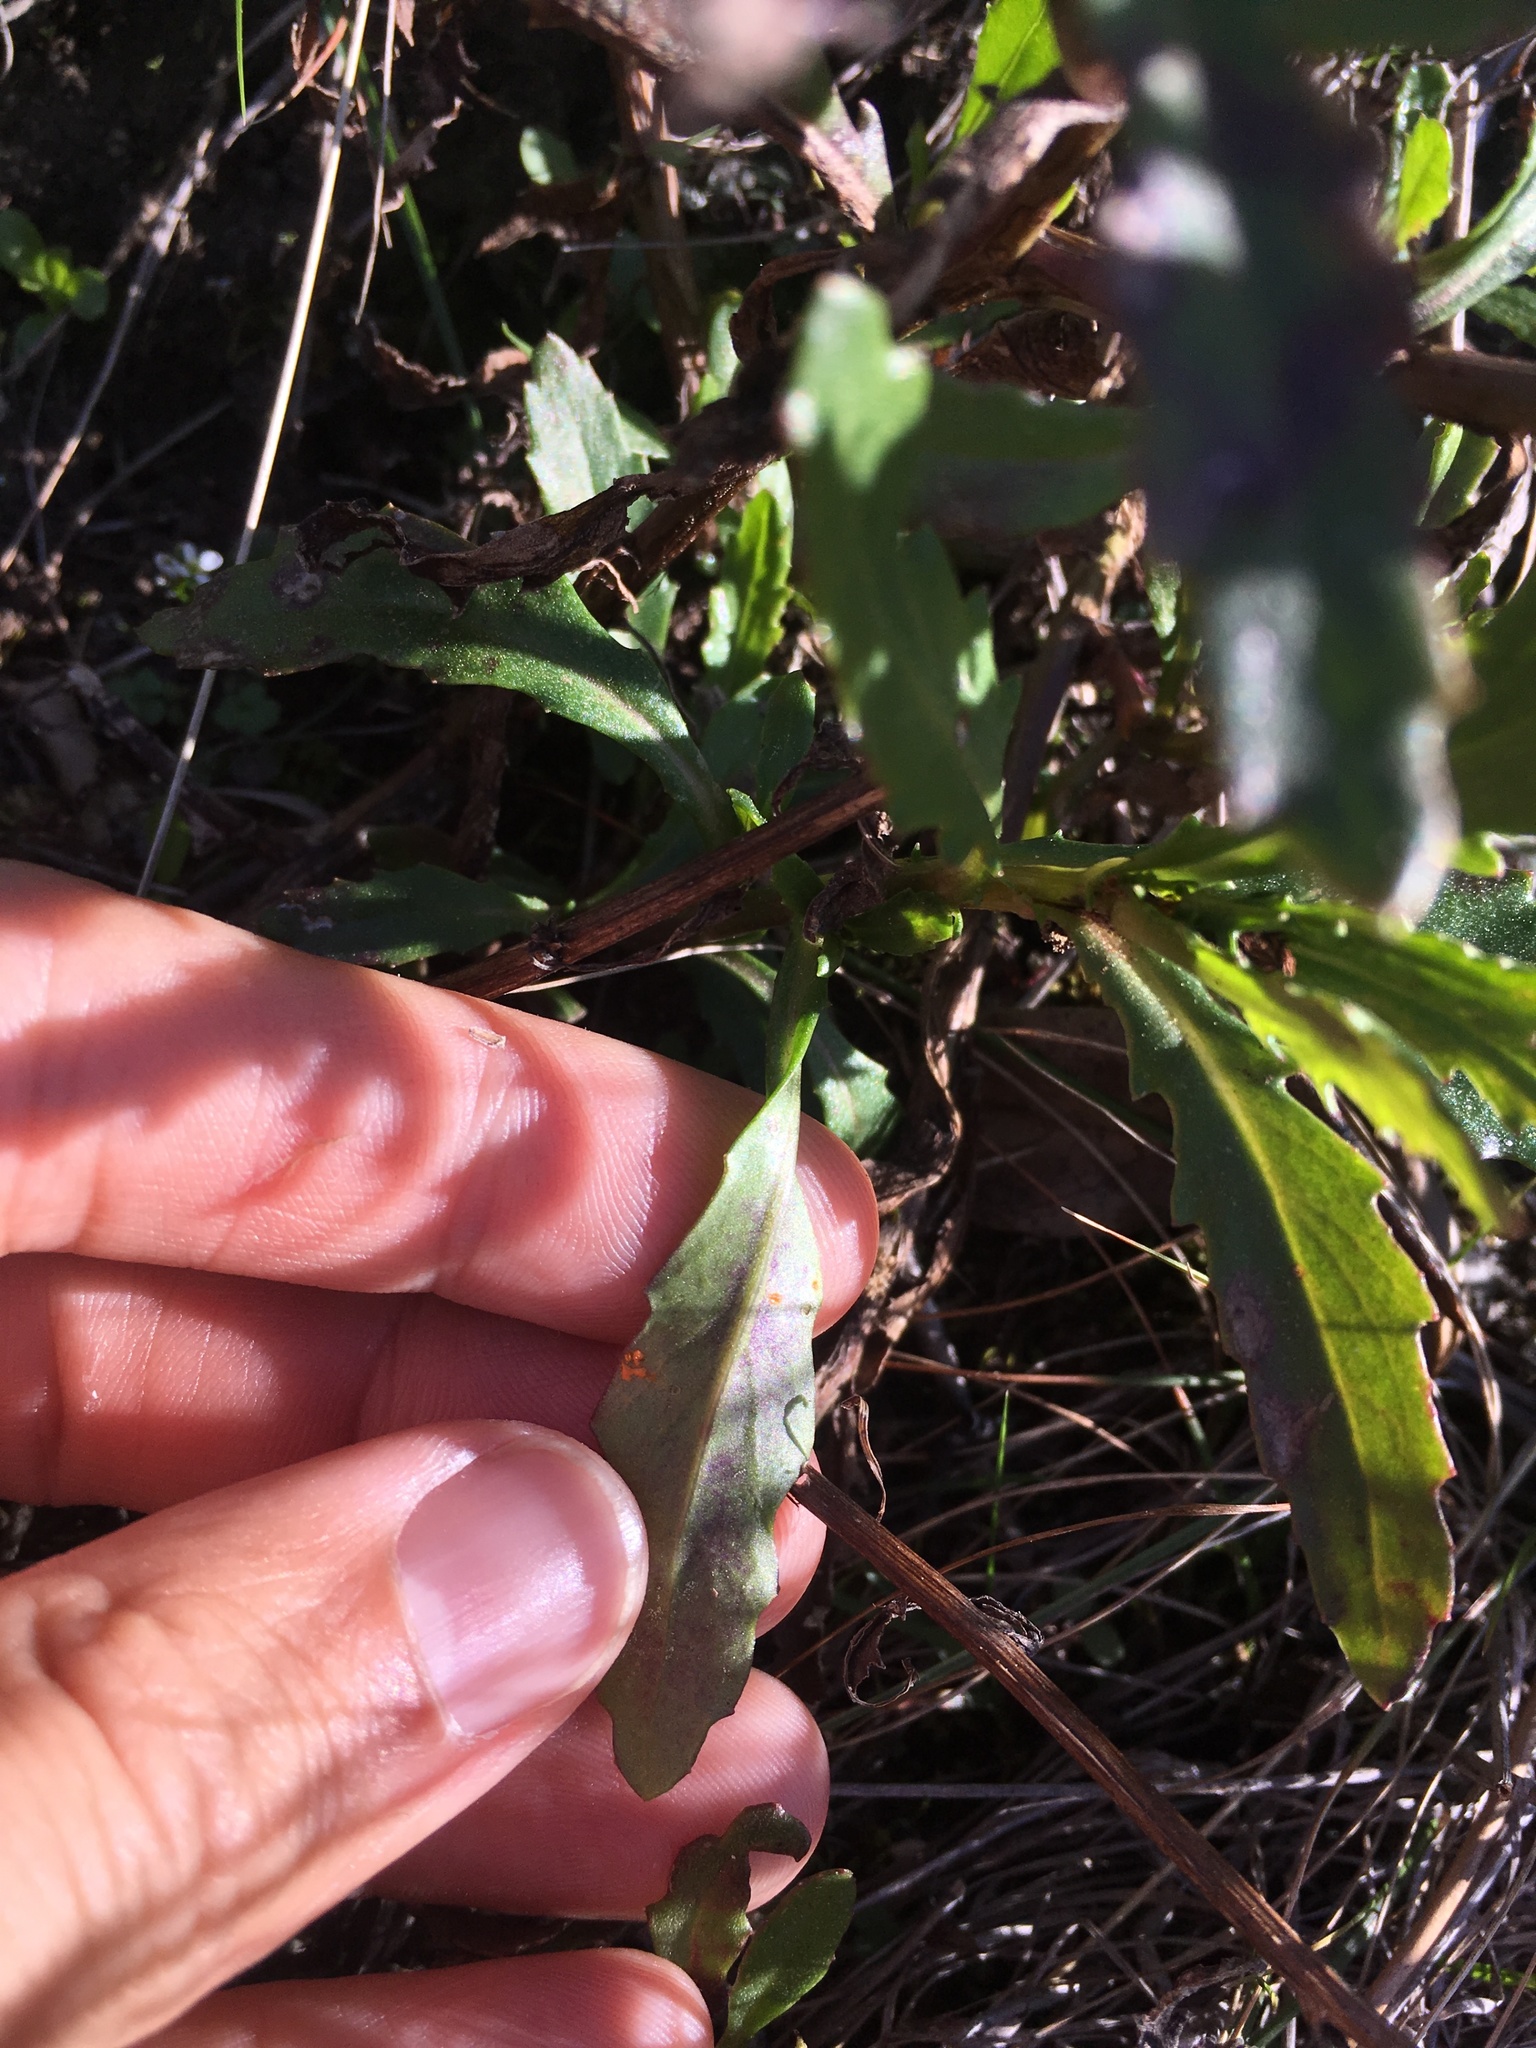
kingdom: Fungi
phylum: Basidiomycota
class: Pucciniomycetes
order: Pucciniales
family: Coleosporiaceae
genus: Coleosporium
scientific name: Coleosporium tussilaginis
